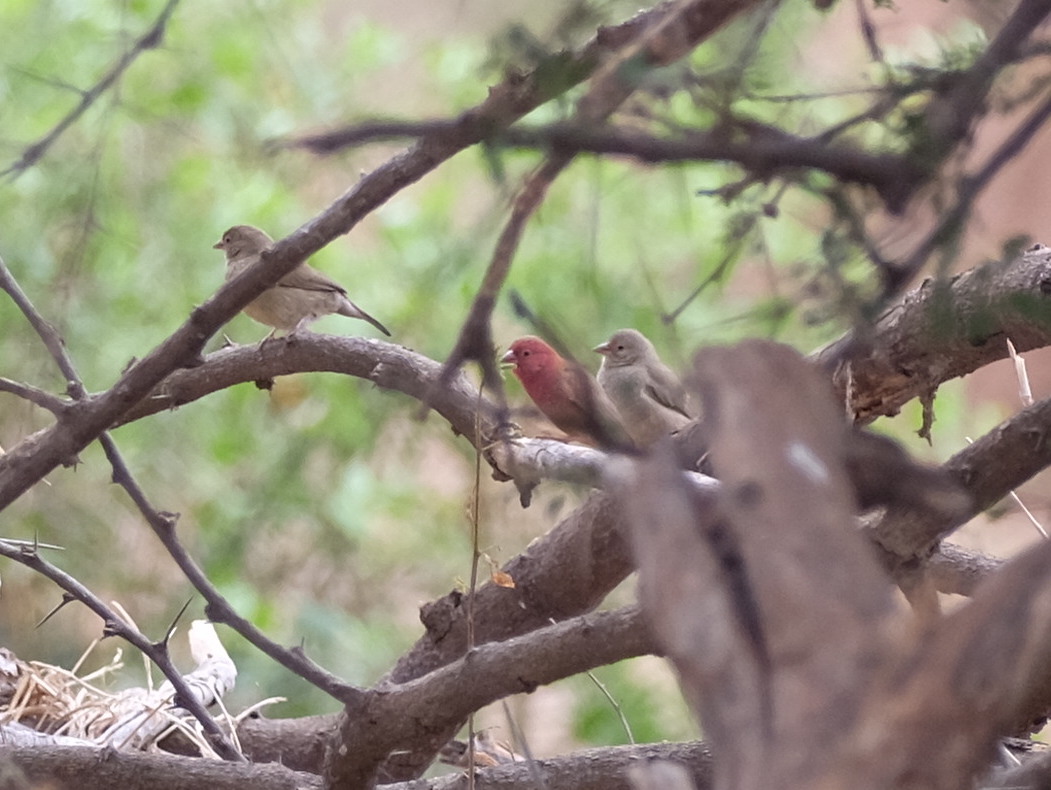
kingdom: Animalia
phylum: Chordata
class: Aves
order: Passeriformes
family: Estrildidae
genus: Lagonosticta
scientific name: Lagonosticta senegala
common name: Red-billed firefinch
